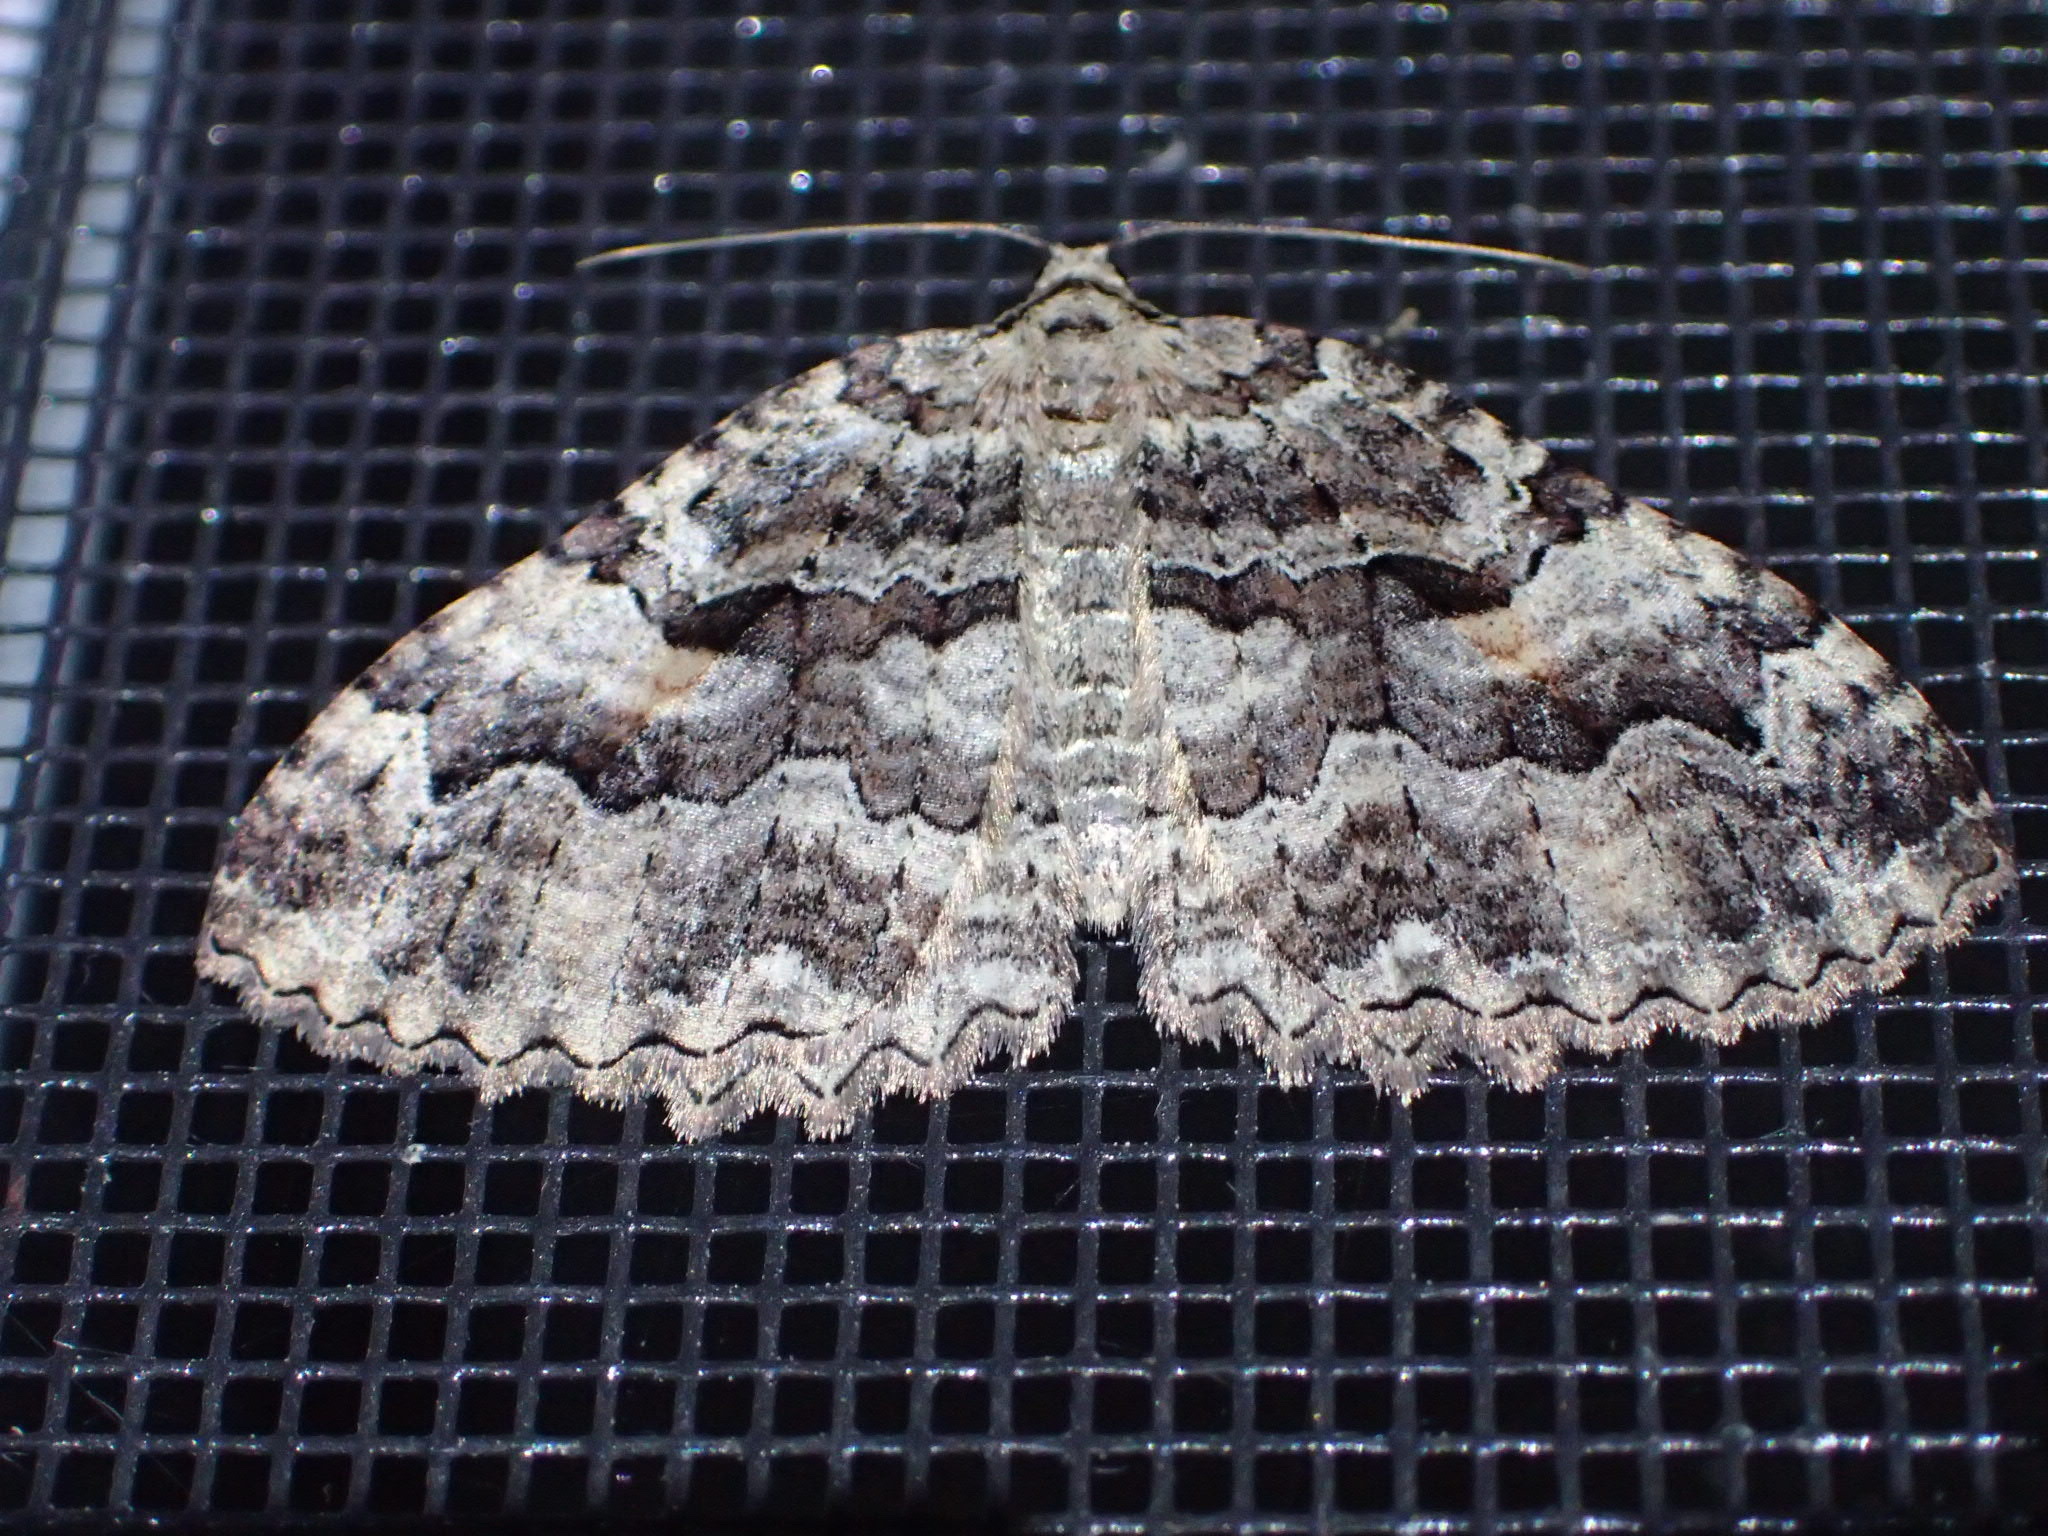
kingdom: Animalia
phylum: Arthropoda
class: Insecta
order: Lepidoptera
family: Geometridae
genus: Triphosa
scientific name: Triphosa haesitata
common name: Tissue moth
